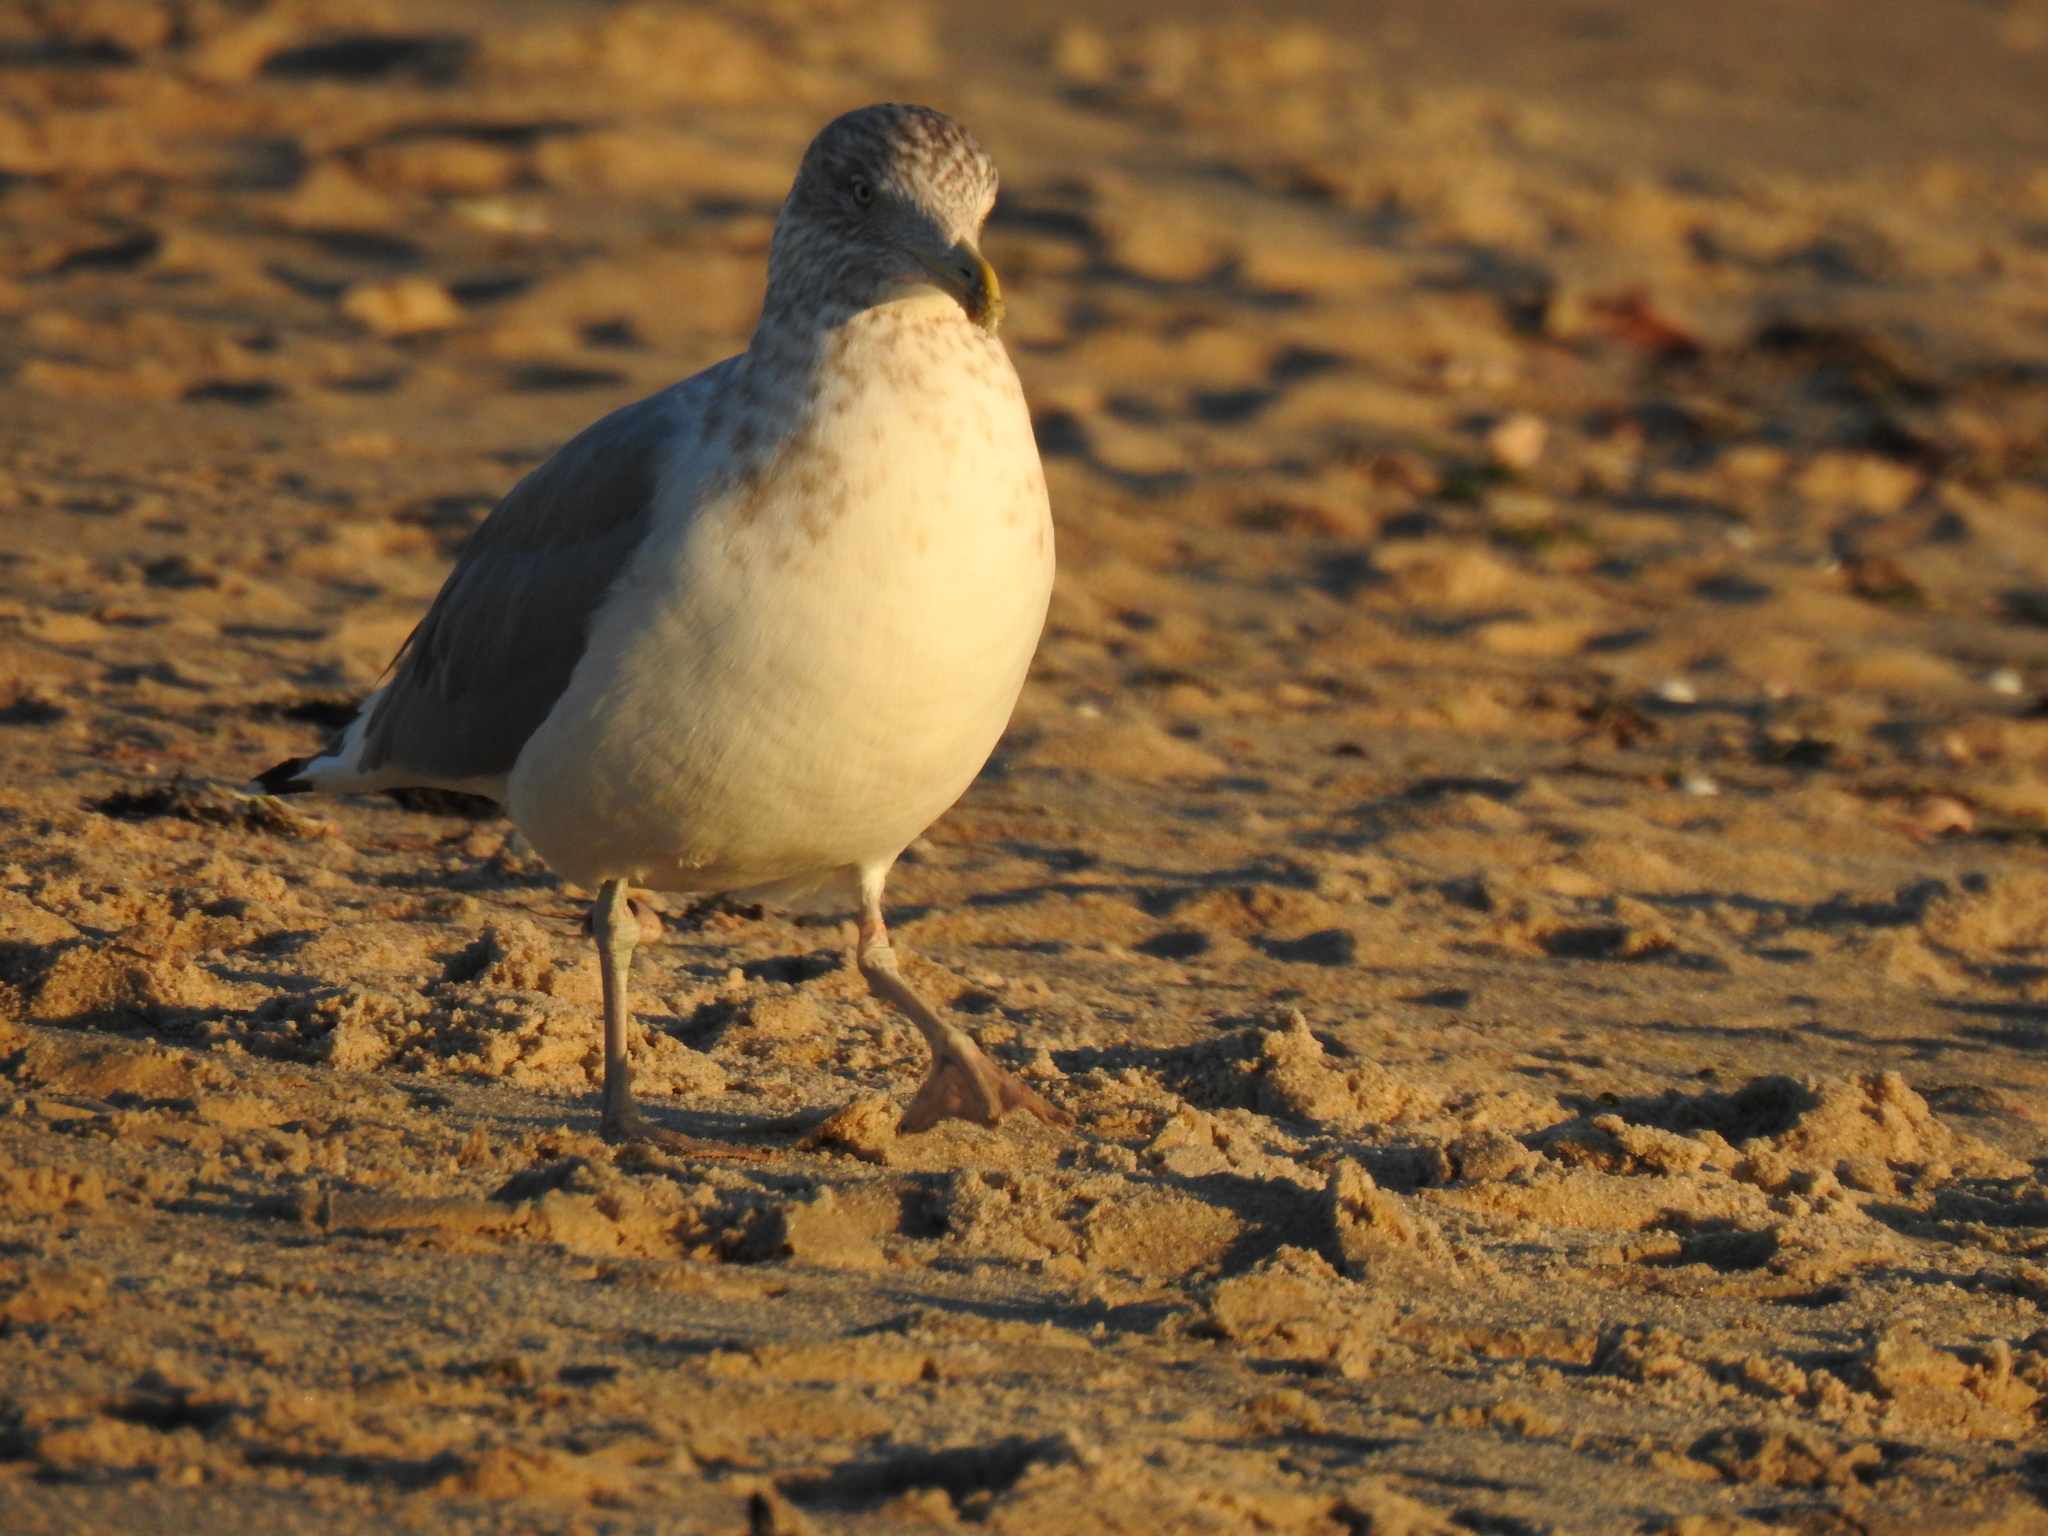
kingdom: Animalia
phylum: Chordata
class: Aves
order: Charadriiformes
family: Laridae
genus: Larus
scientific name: Larus argentatus
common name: Herring gull
